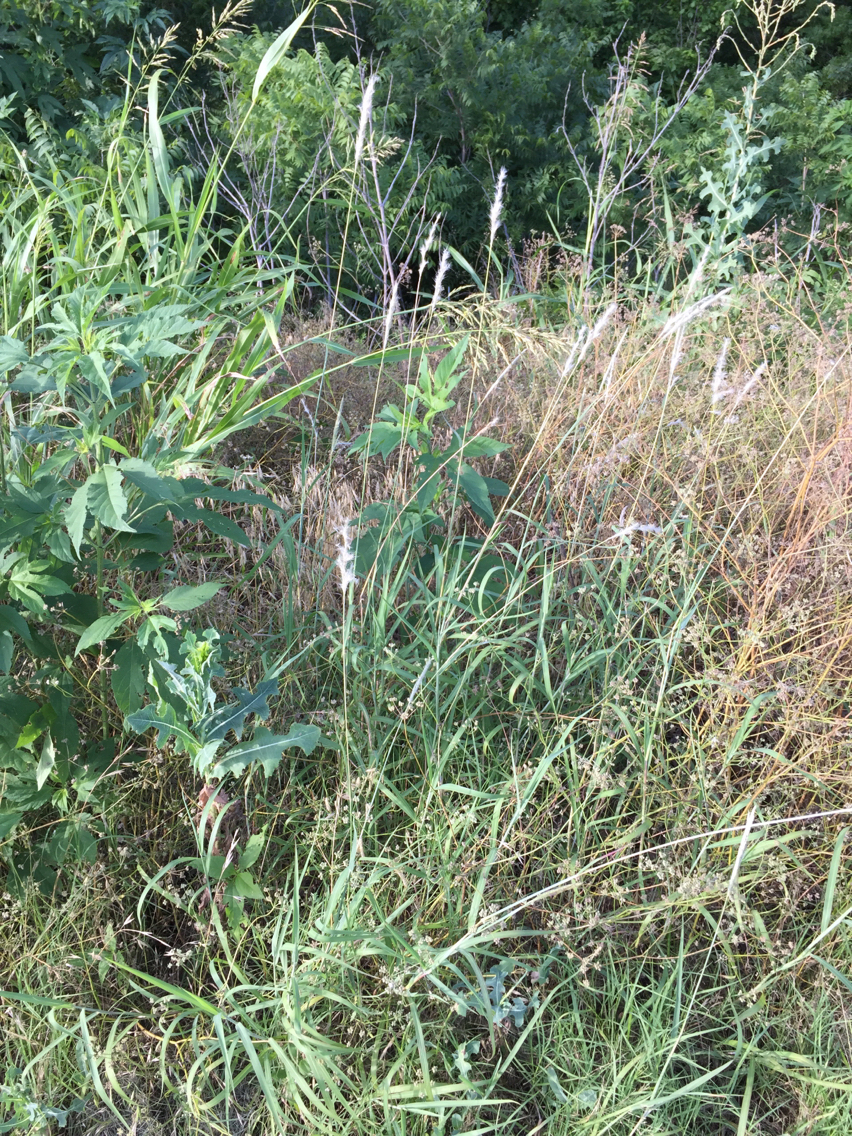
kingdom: Plantae
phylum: Tracheophyta
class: Liliopsida
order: Poales
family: Poaceae
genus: Bothriochloa
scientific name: Bothriochloa torreyana
